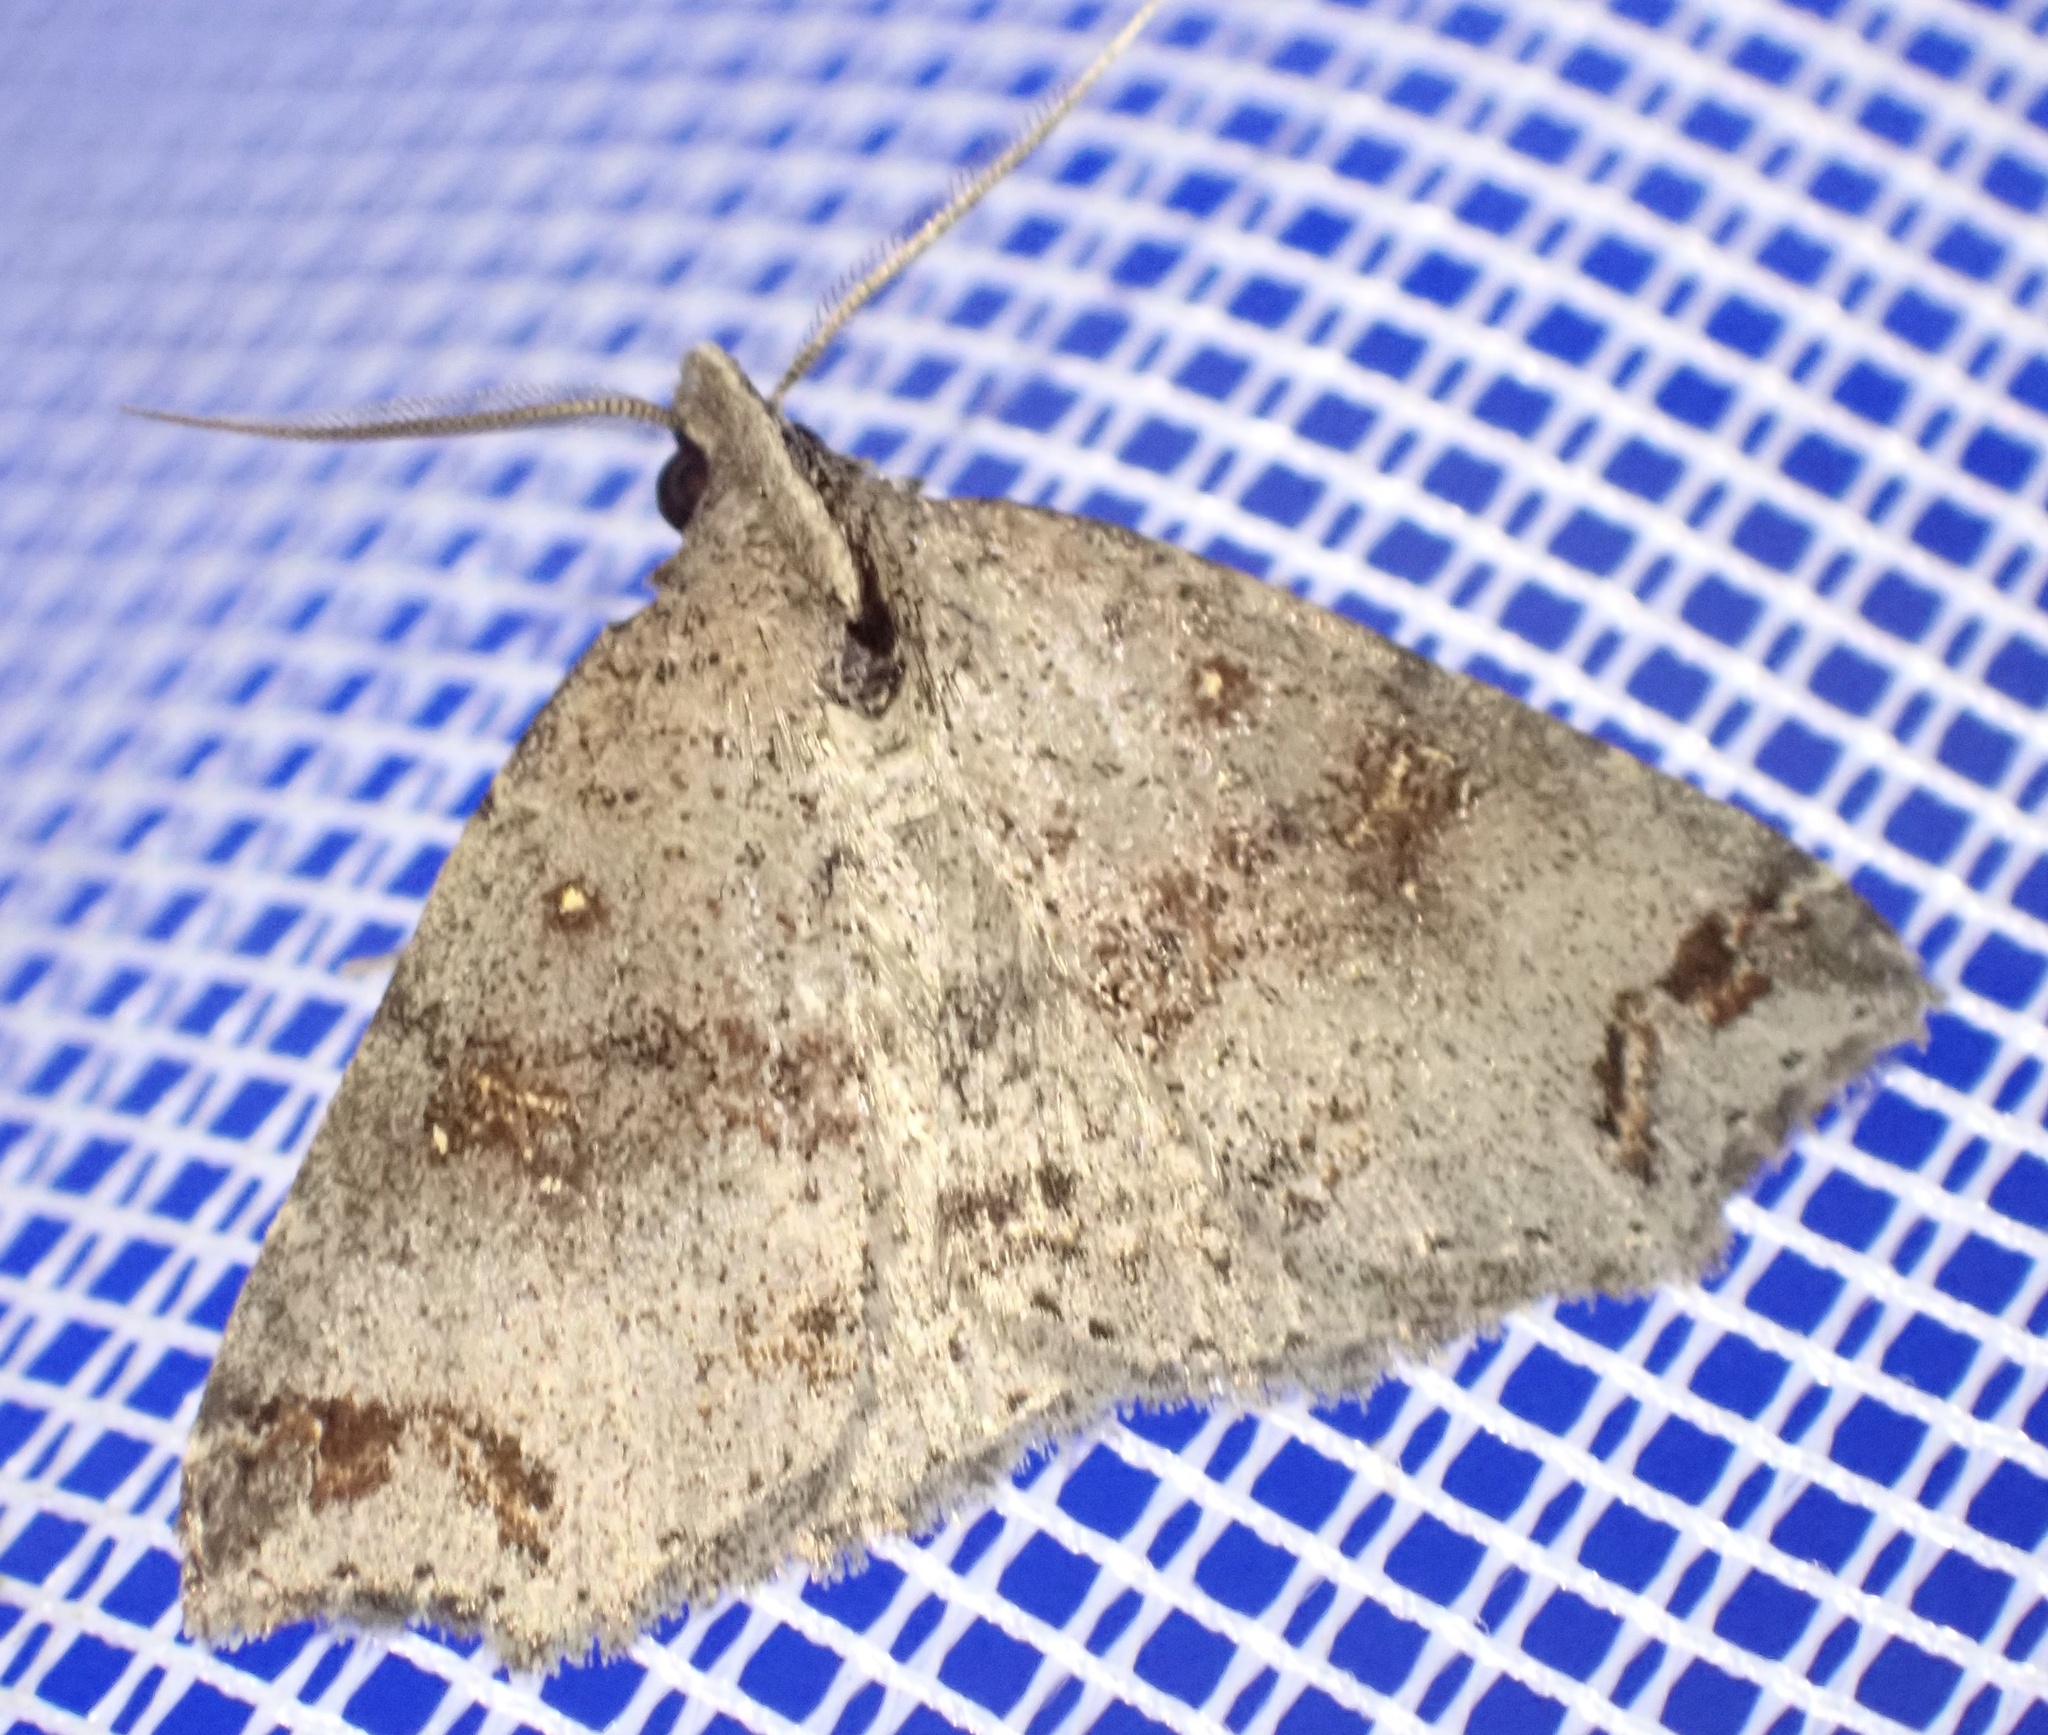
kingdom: Animalia
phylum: Arthropoda
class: Insecta
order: Lepidoptera
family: Erebidae
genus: Lithilaria
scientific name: Lithilaria proestans
